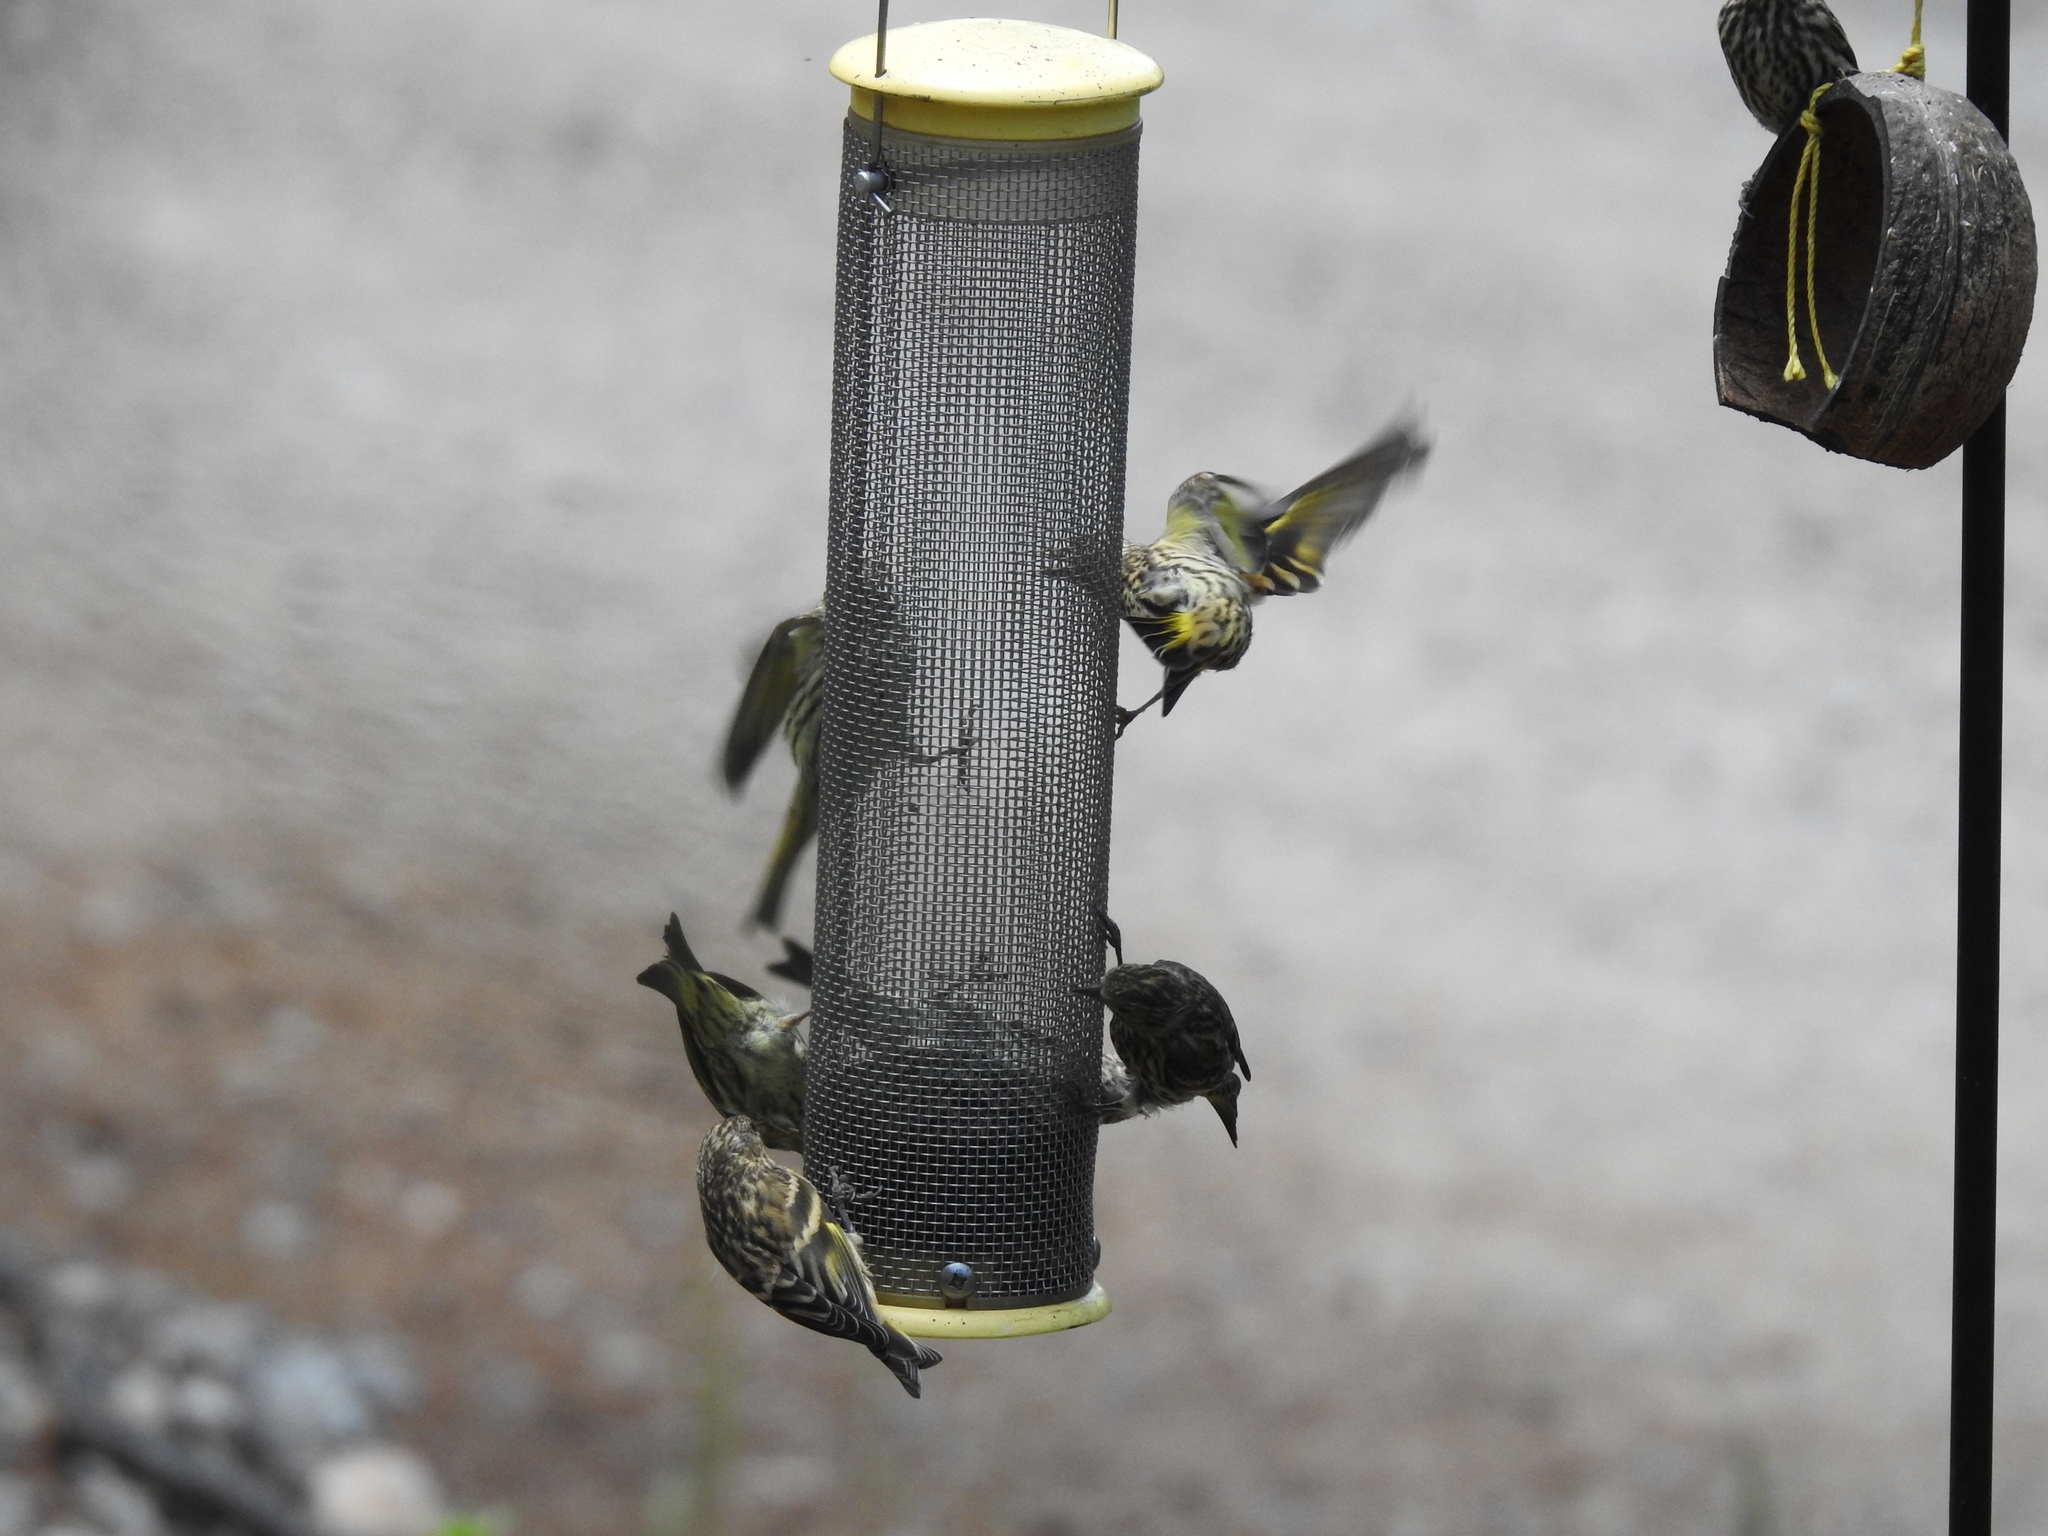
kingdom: Animalia
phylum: Chordata
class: Aves
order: Passeriformes
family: Fringillidae
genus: Spinus
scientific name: Spinus pinus
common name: Pine siskin
